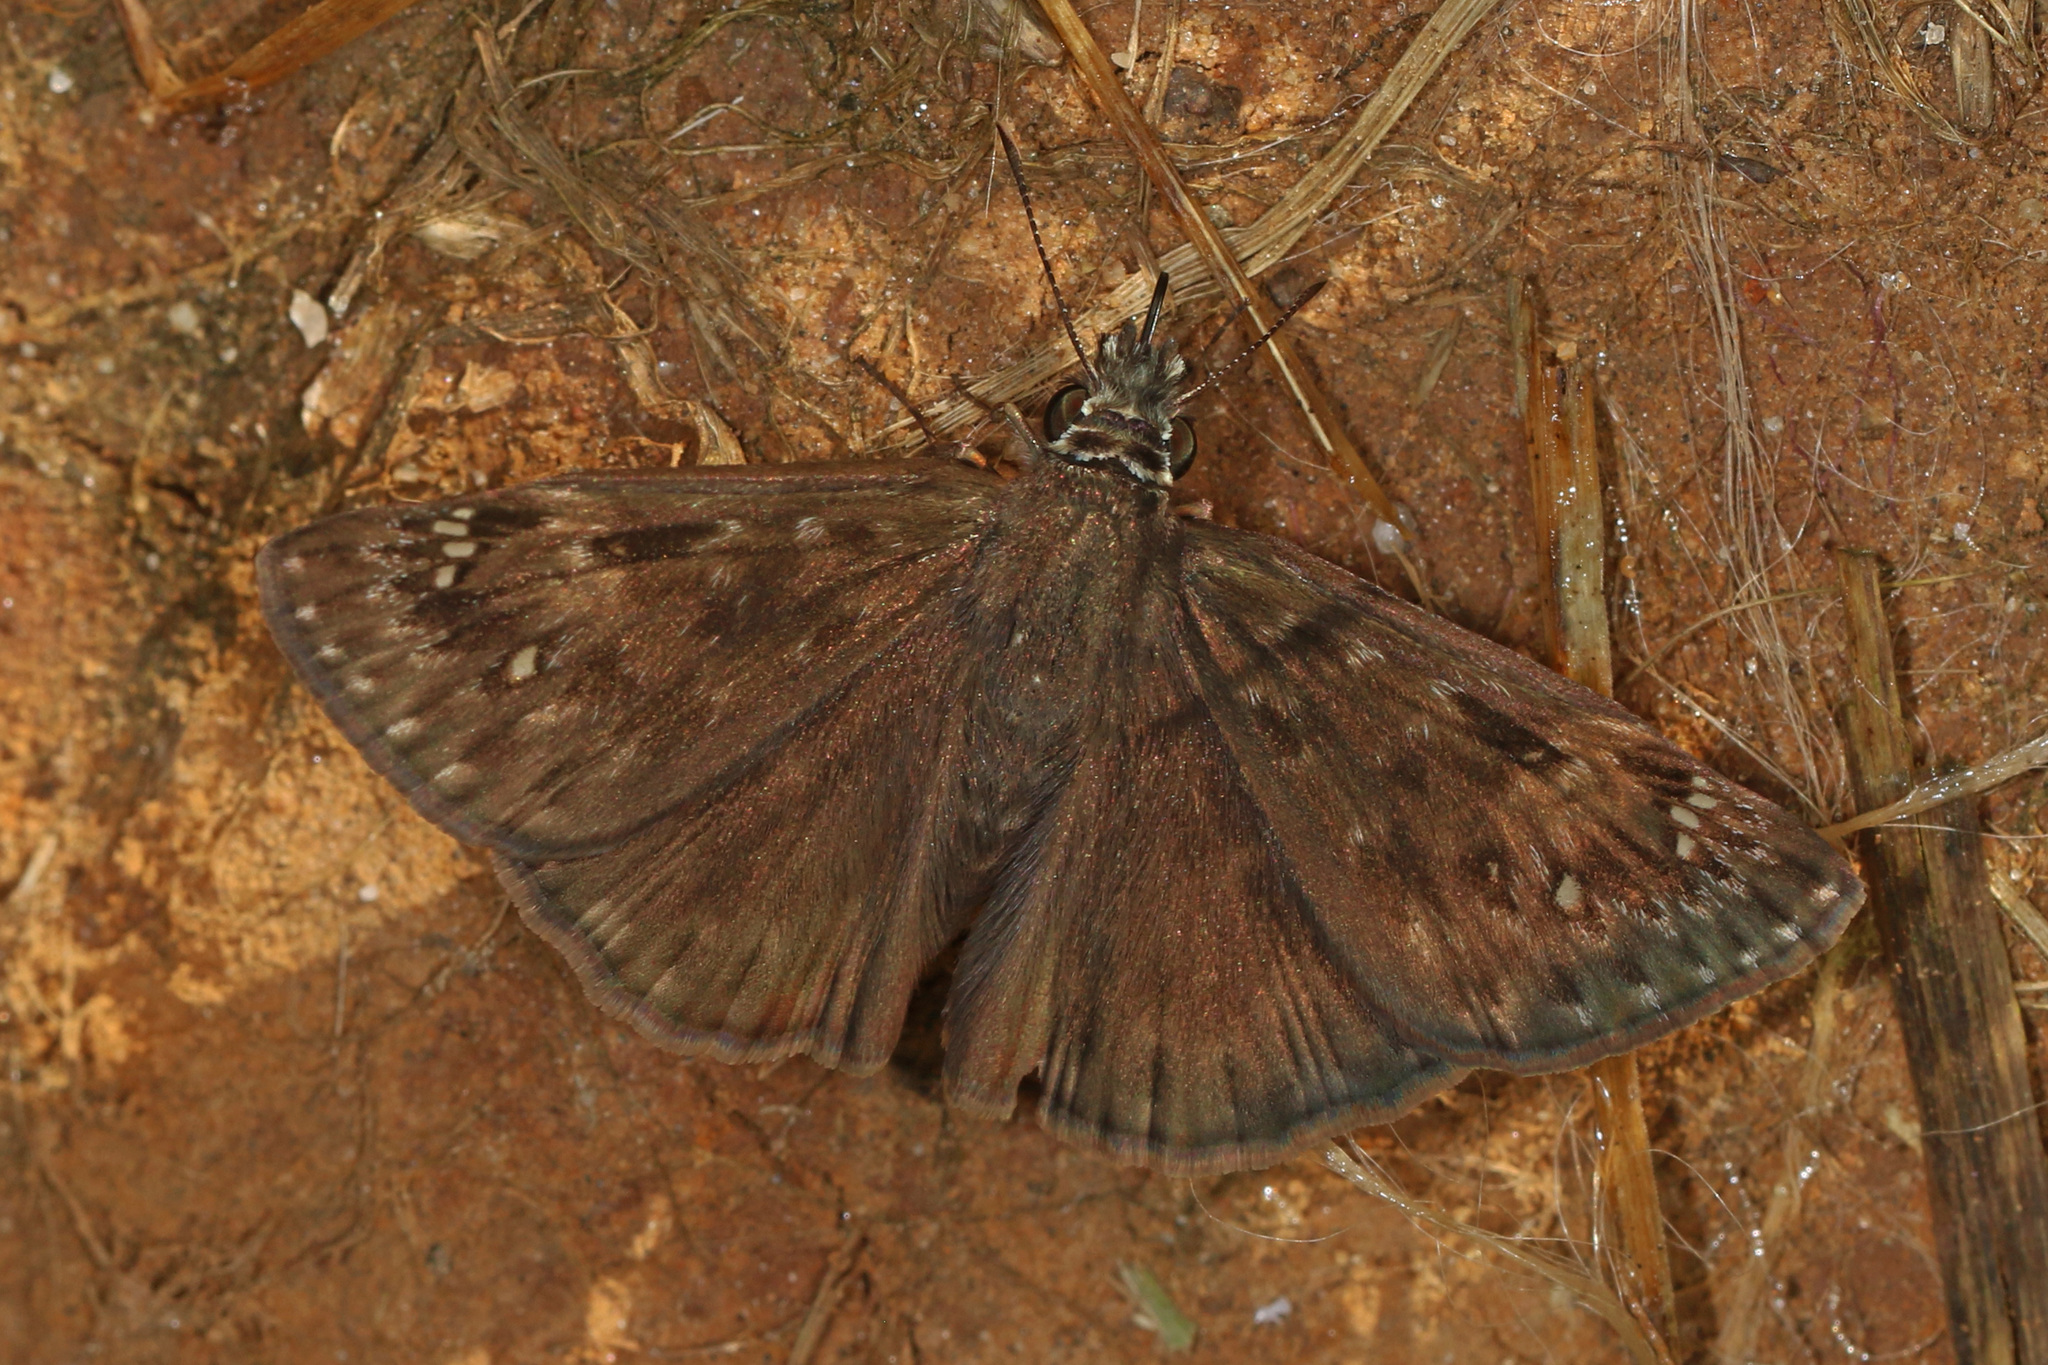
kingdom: Animalia
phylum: Arthropoda
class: Insecta
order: Lepidoptera
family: Hesperiidae
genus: Erynnis
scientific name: Erynnis horatius
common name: Horace's duskywing
